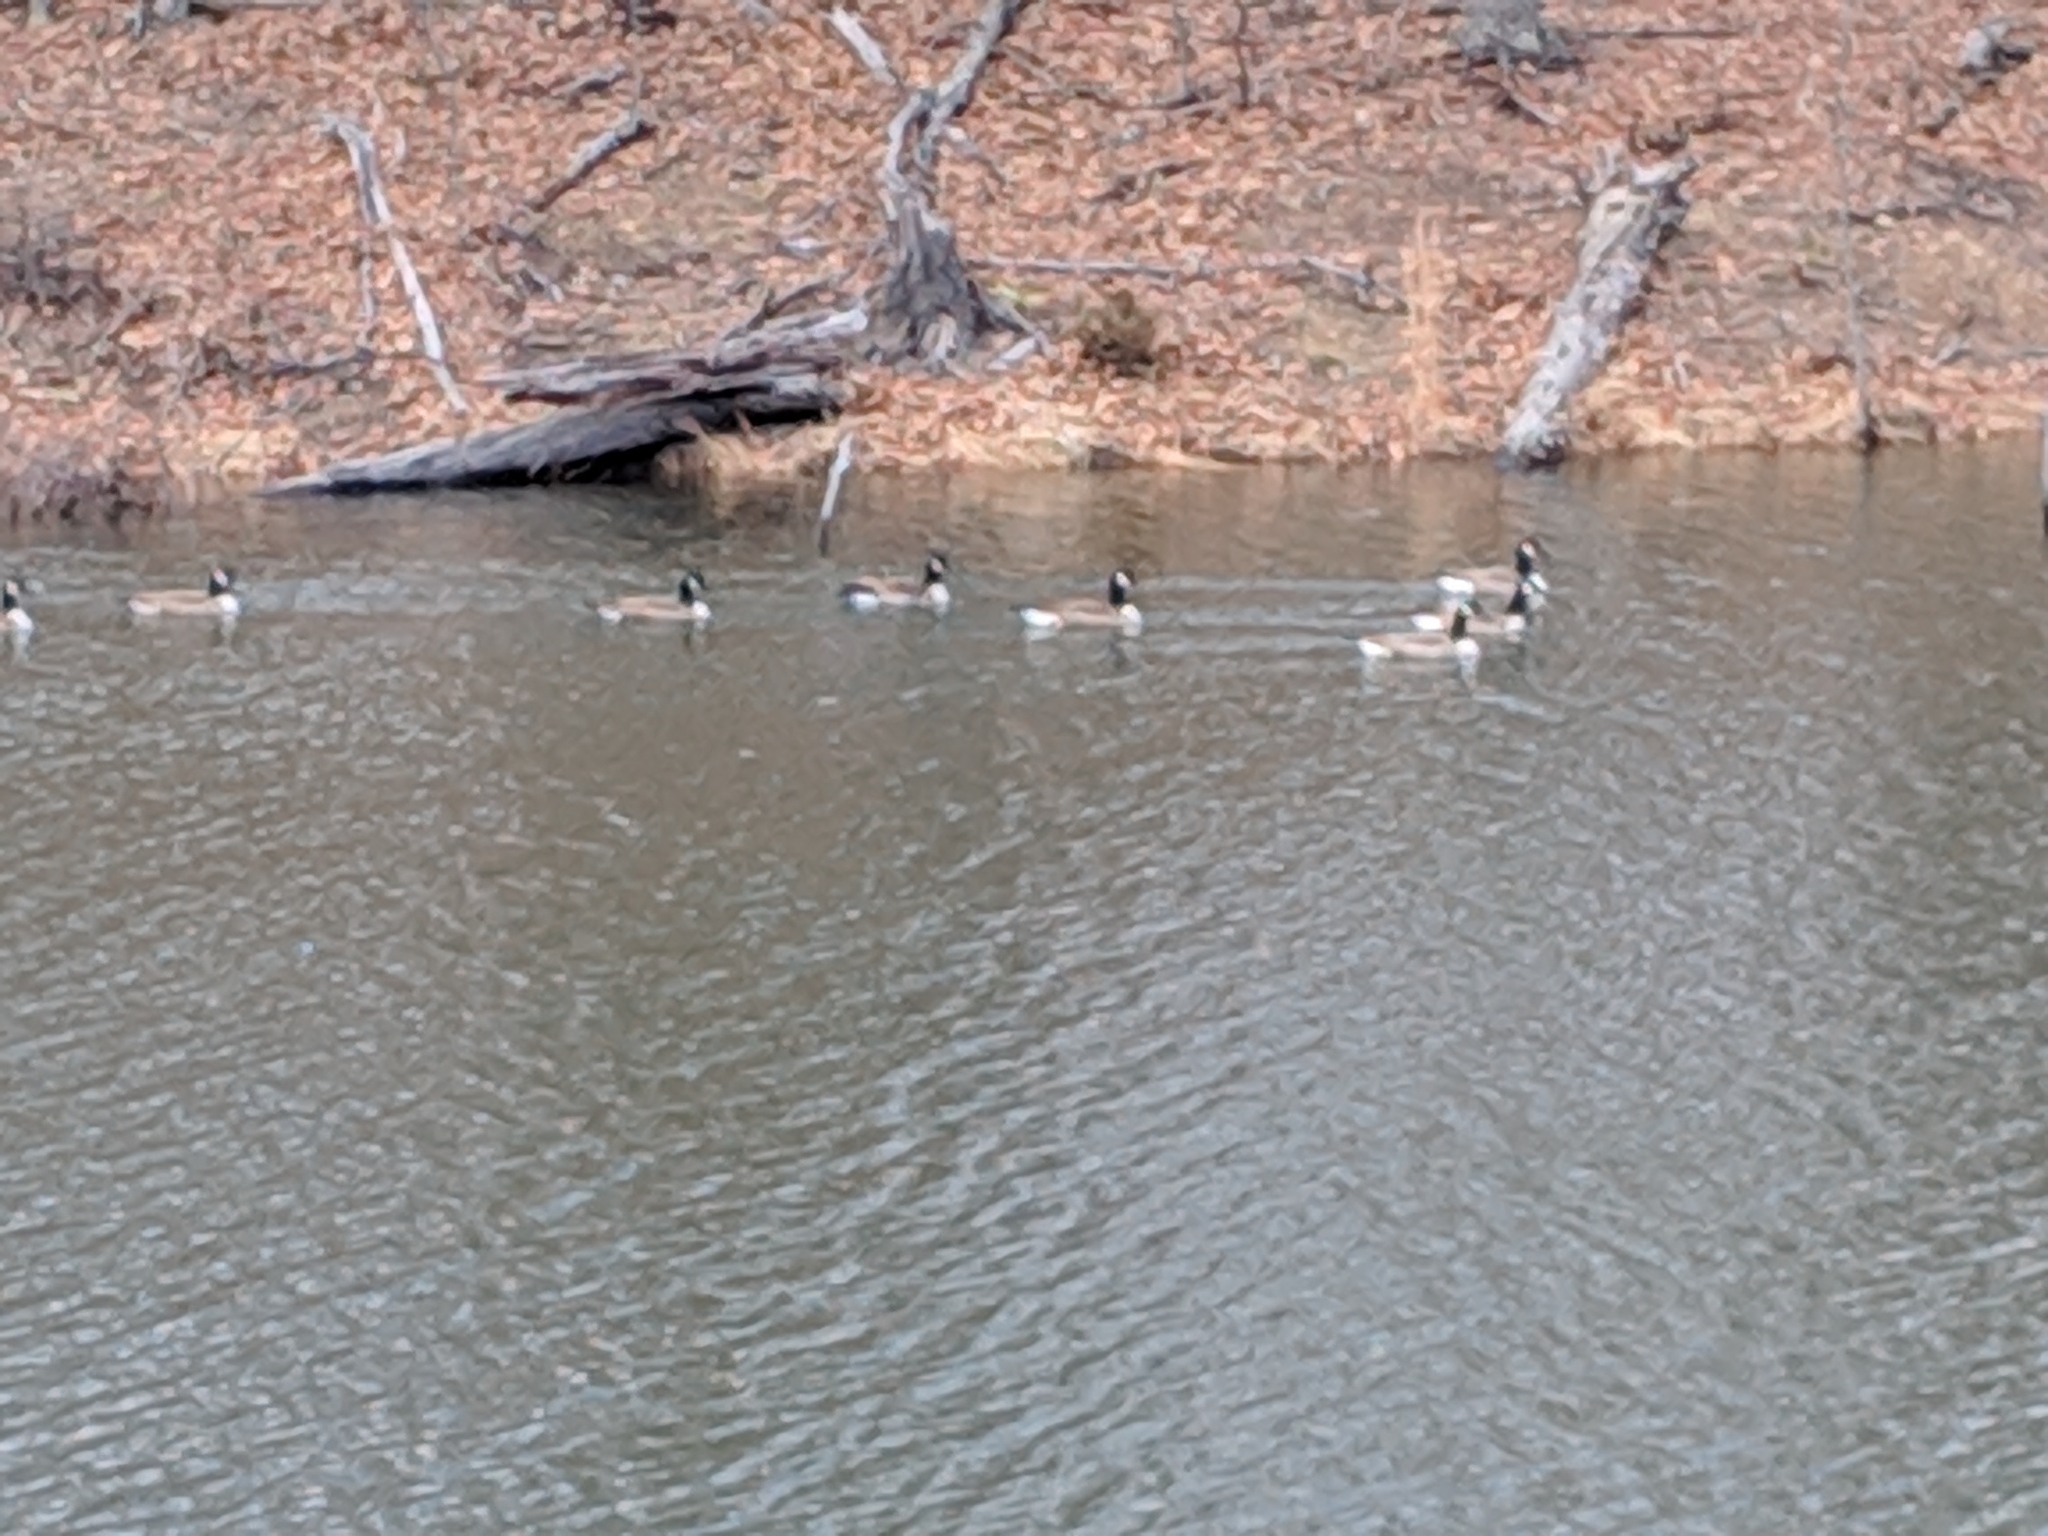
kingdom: Animalia
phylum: Chordata
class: Aves
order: Anseriformes
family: Anatidae
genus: Branta
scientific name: Branta canadensis
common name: Canada goose
